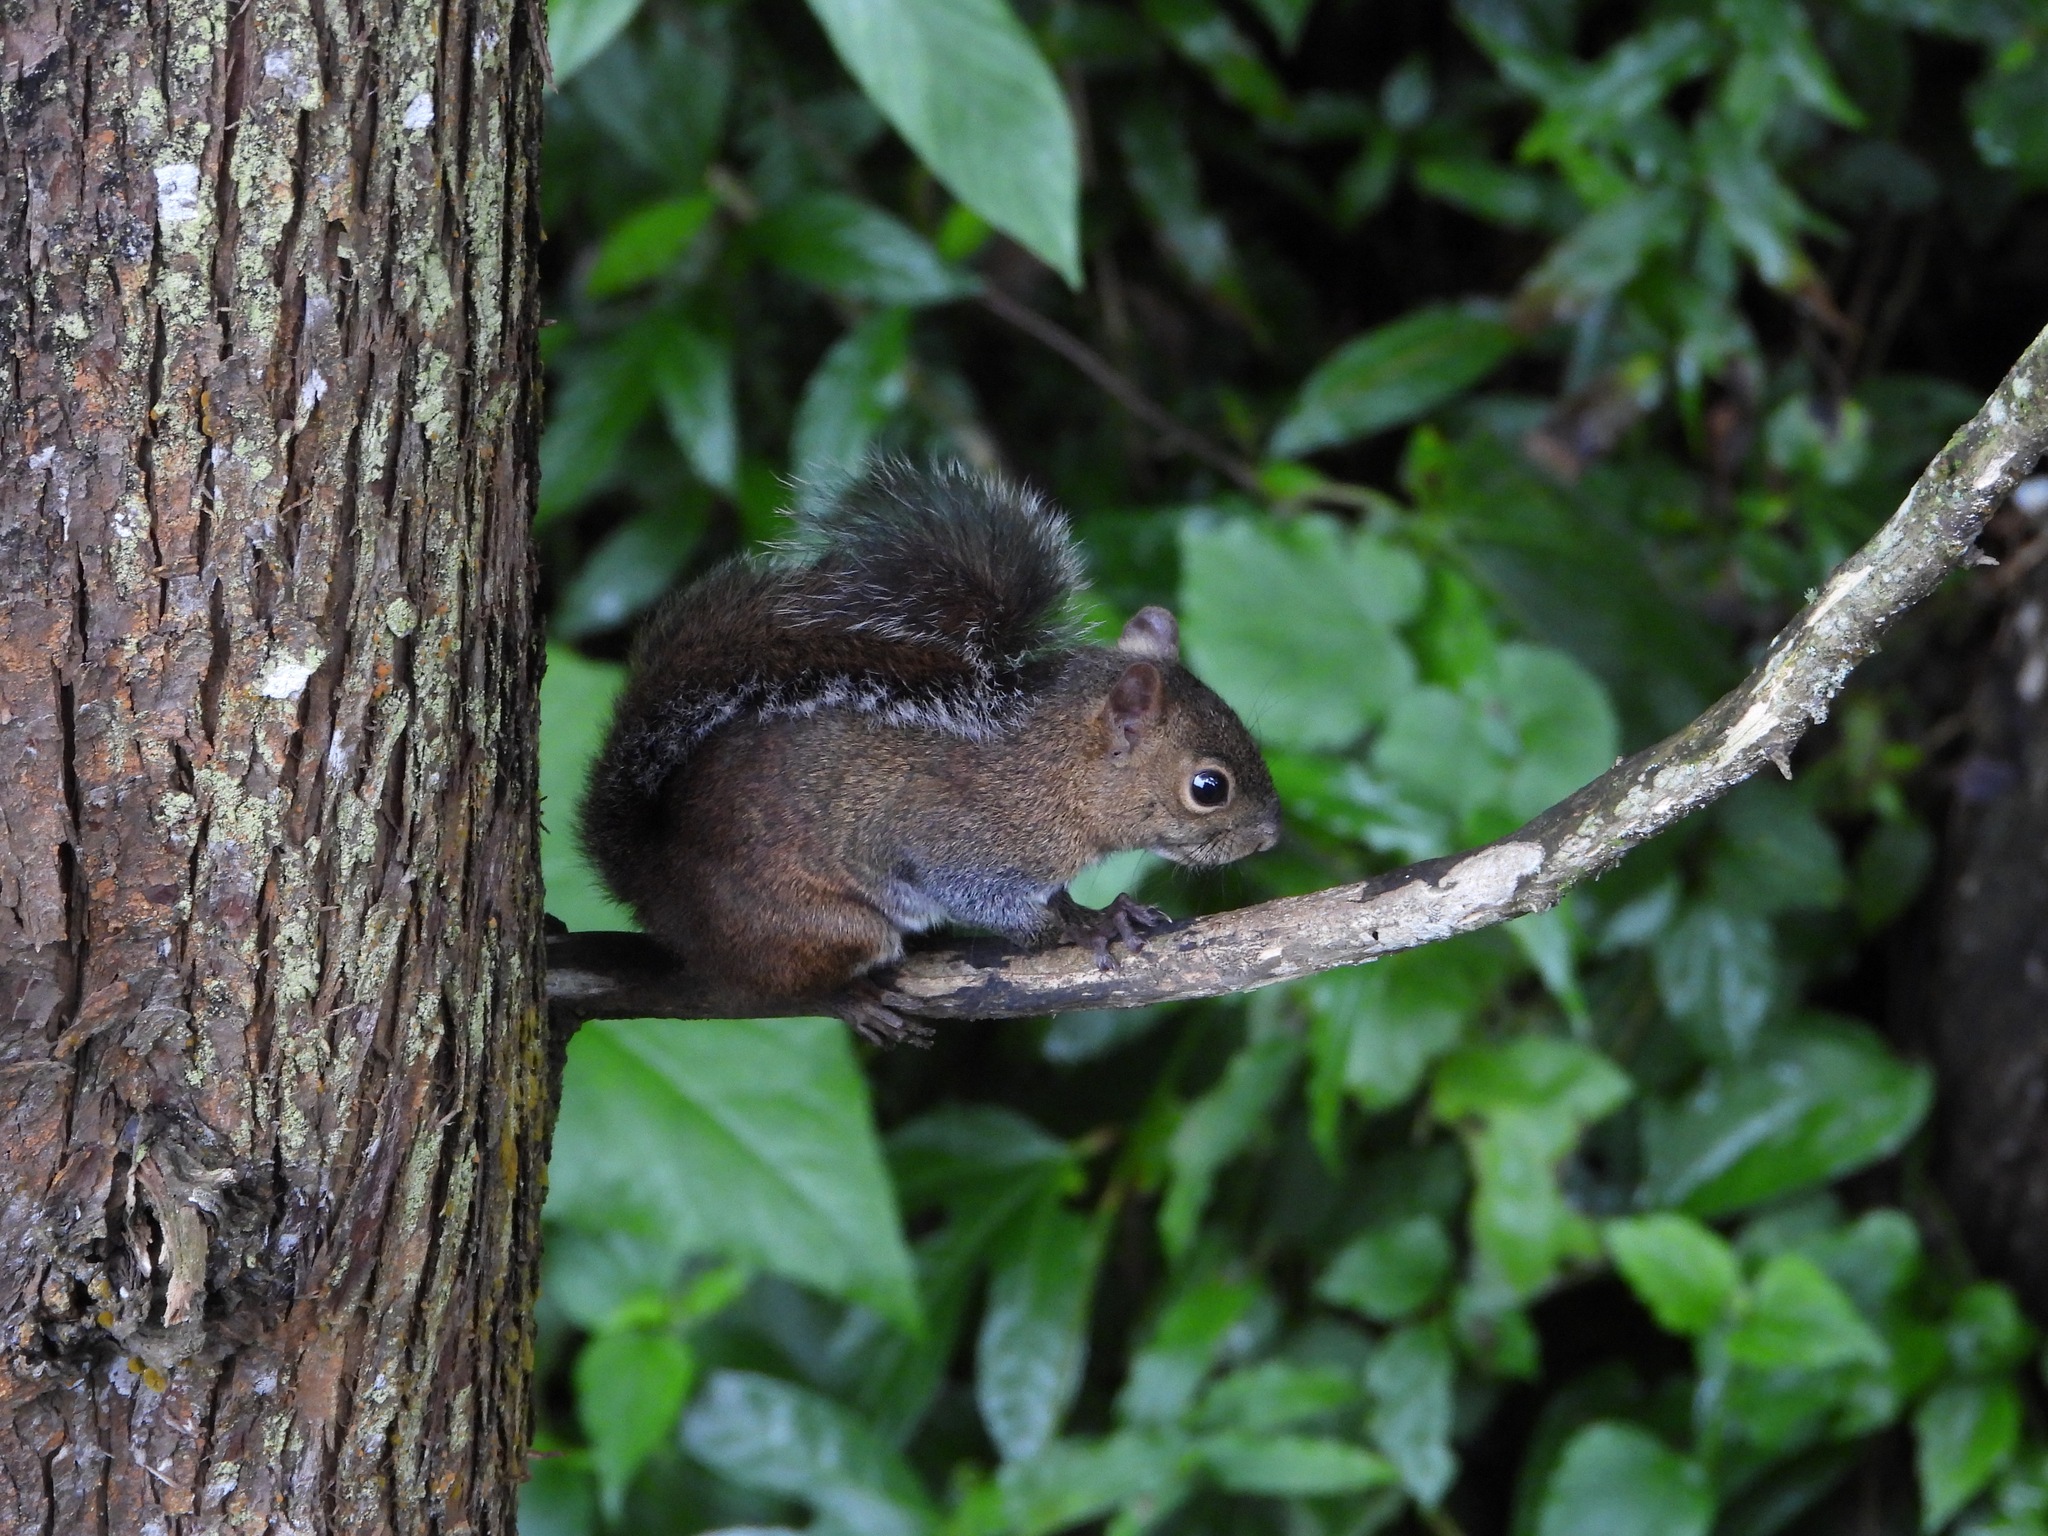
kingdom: Animalia
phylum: Chordata
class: Mammalia
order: Rodentia
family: Sciuridae
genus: Sciurus
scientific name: Sciurus deppei
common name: Deppe's squirrel
